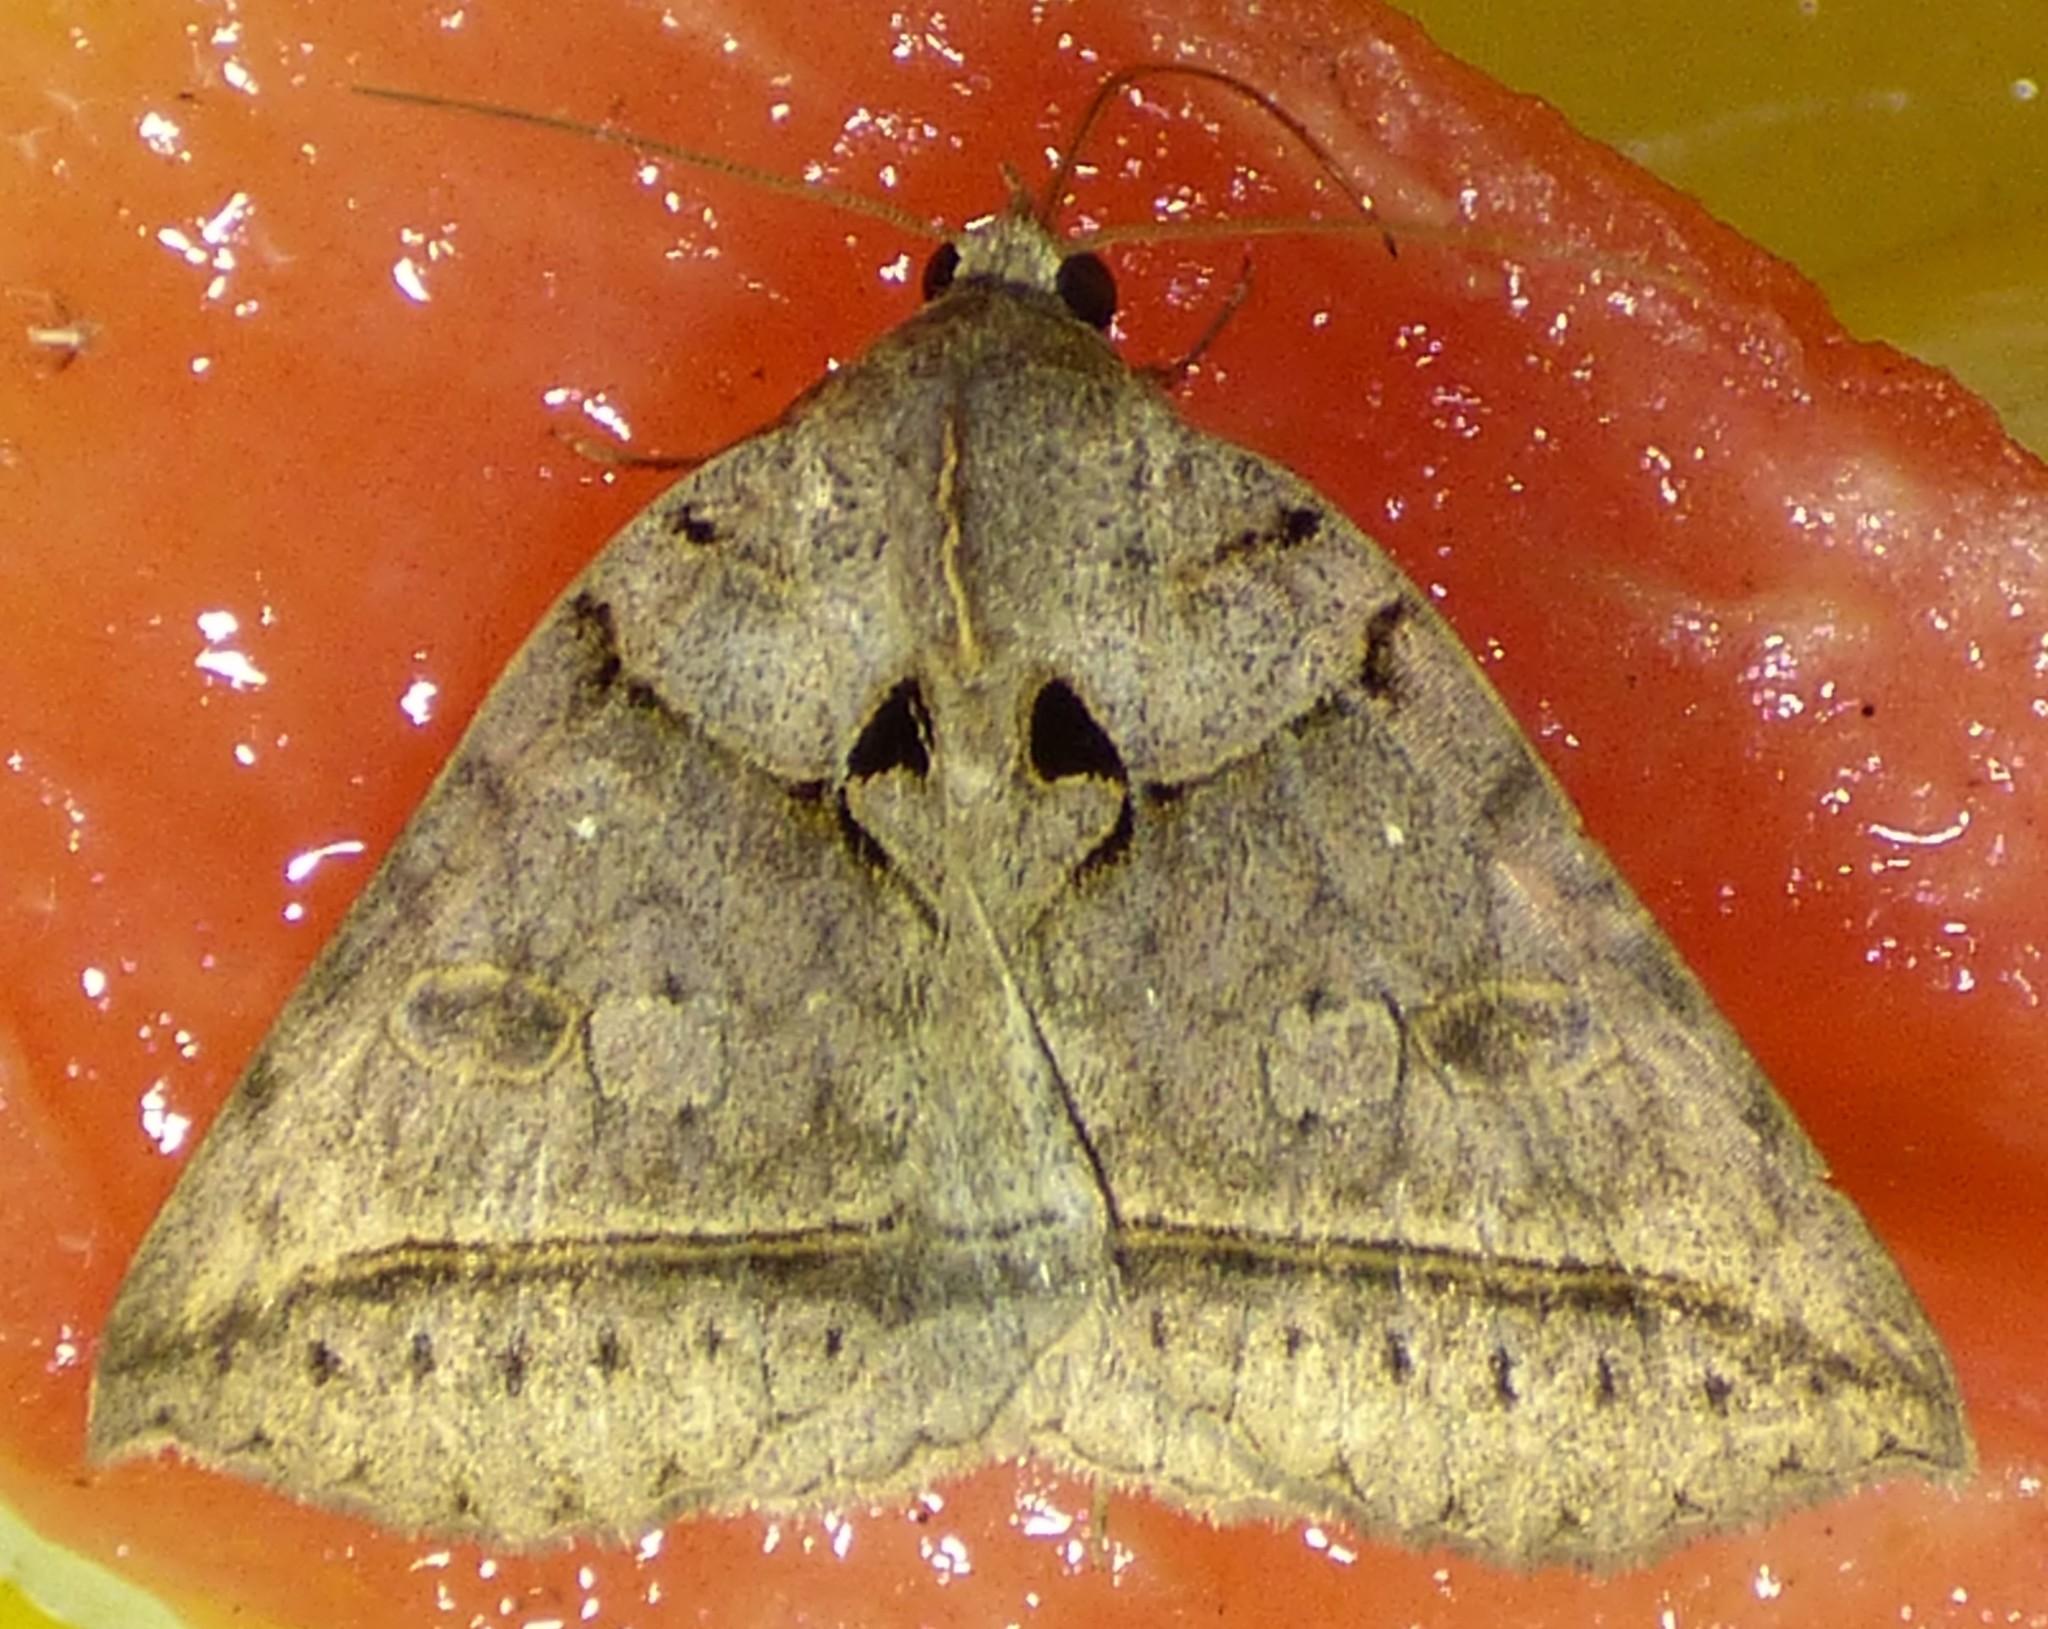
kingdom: Animalia
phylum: Arthropoda
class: Insecta
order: Lepidoptera
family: Erebidae
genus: Celiptera
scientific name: Celiptera frustulum
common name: Black bit moth
